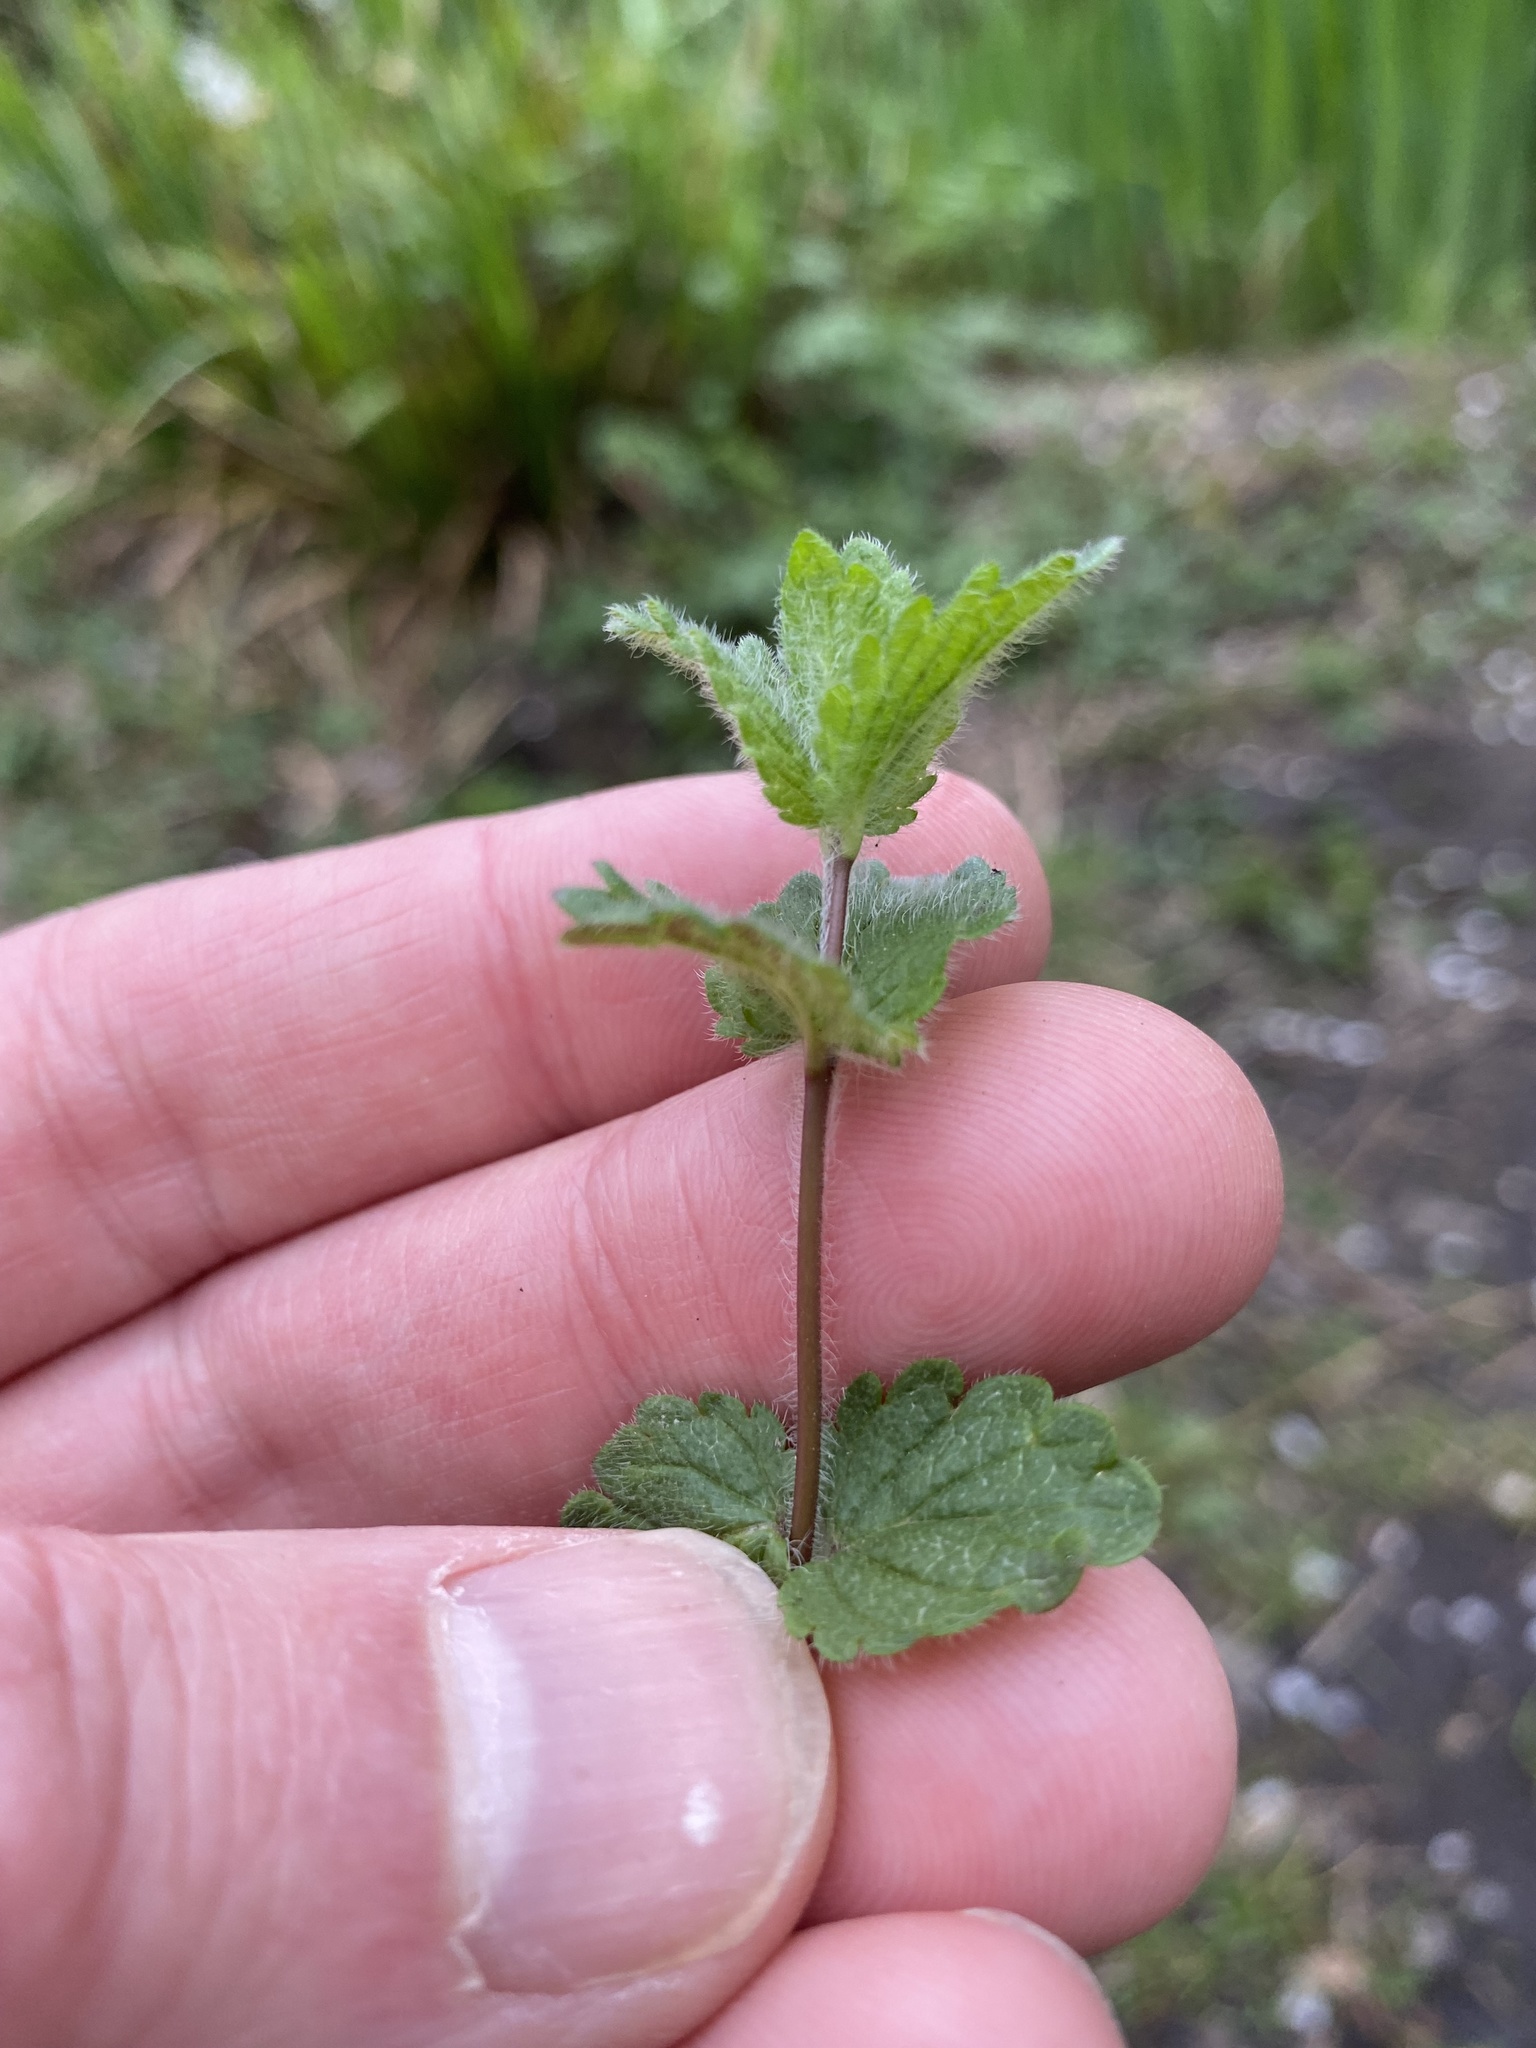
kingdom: Plantae
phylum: Tracheophyta
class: Magnoliopsida
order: Lamiales
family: Plantaginaceae
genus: Veronica
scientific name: Veronica chamaedrys
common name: Germander speedwell
